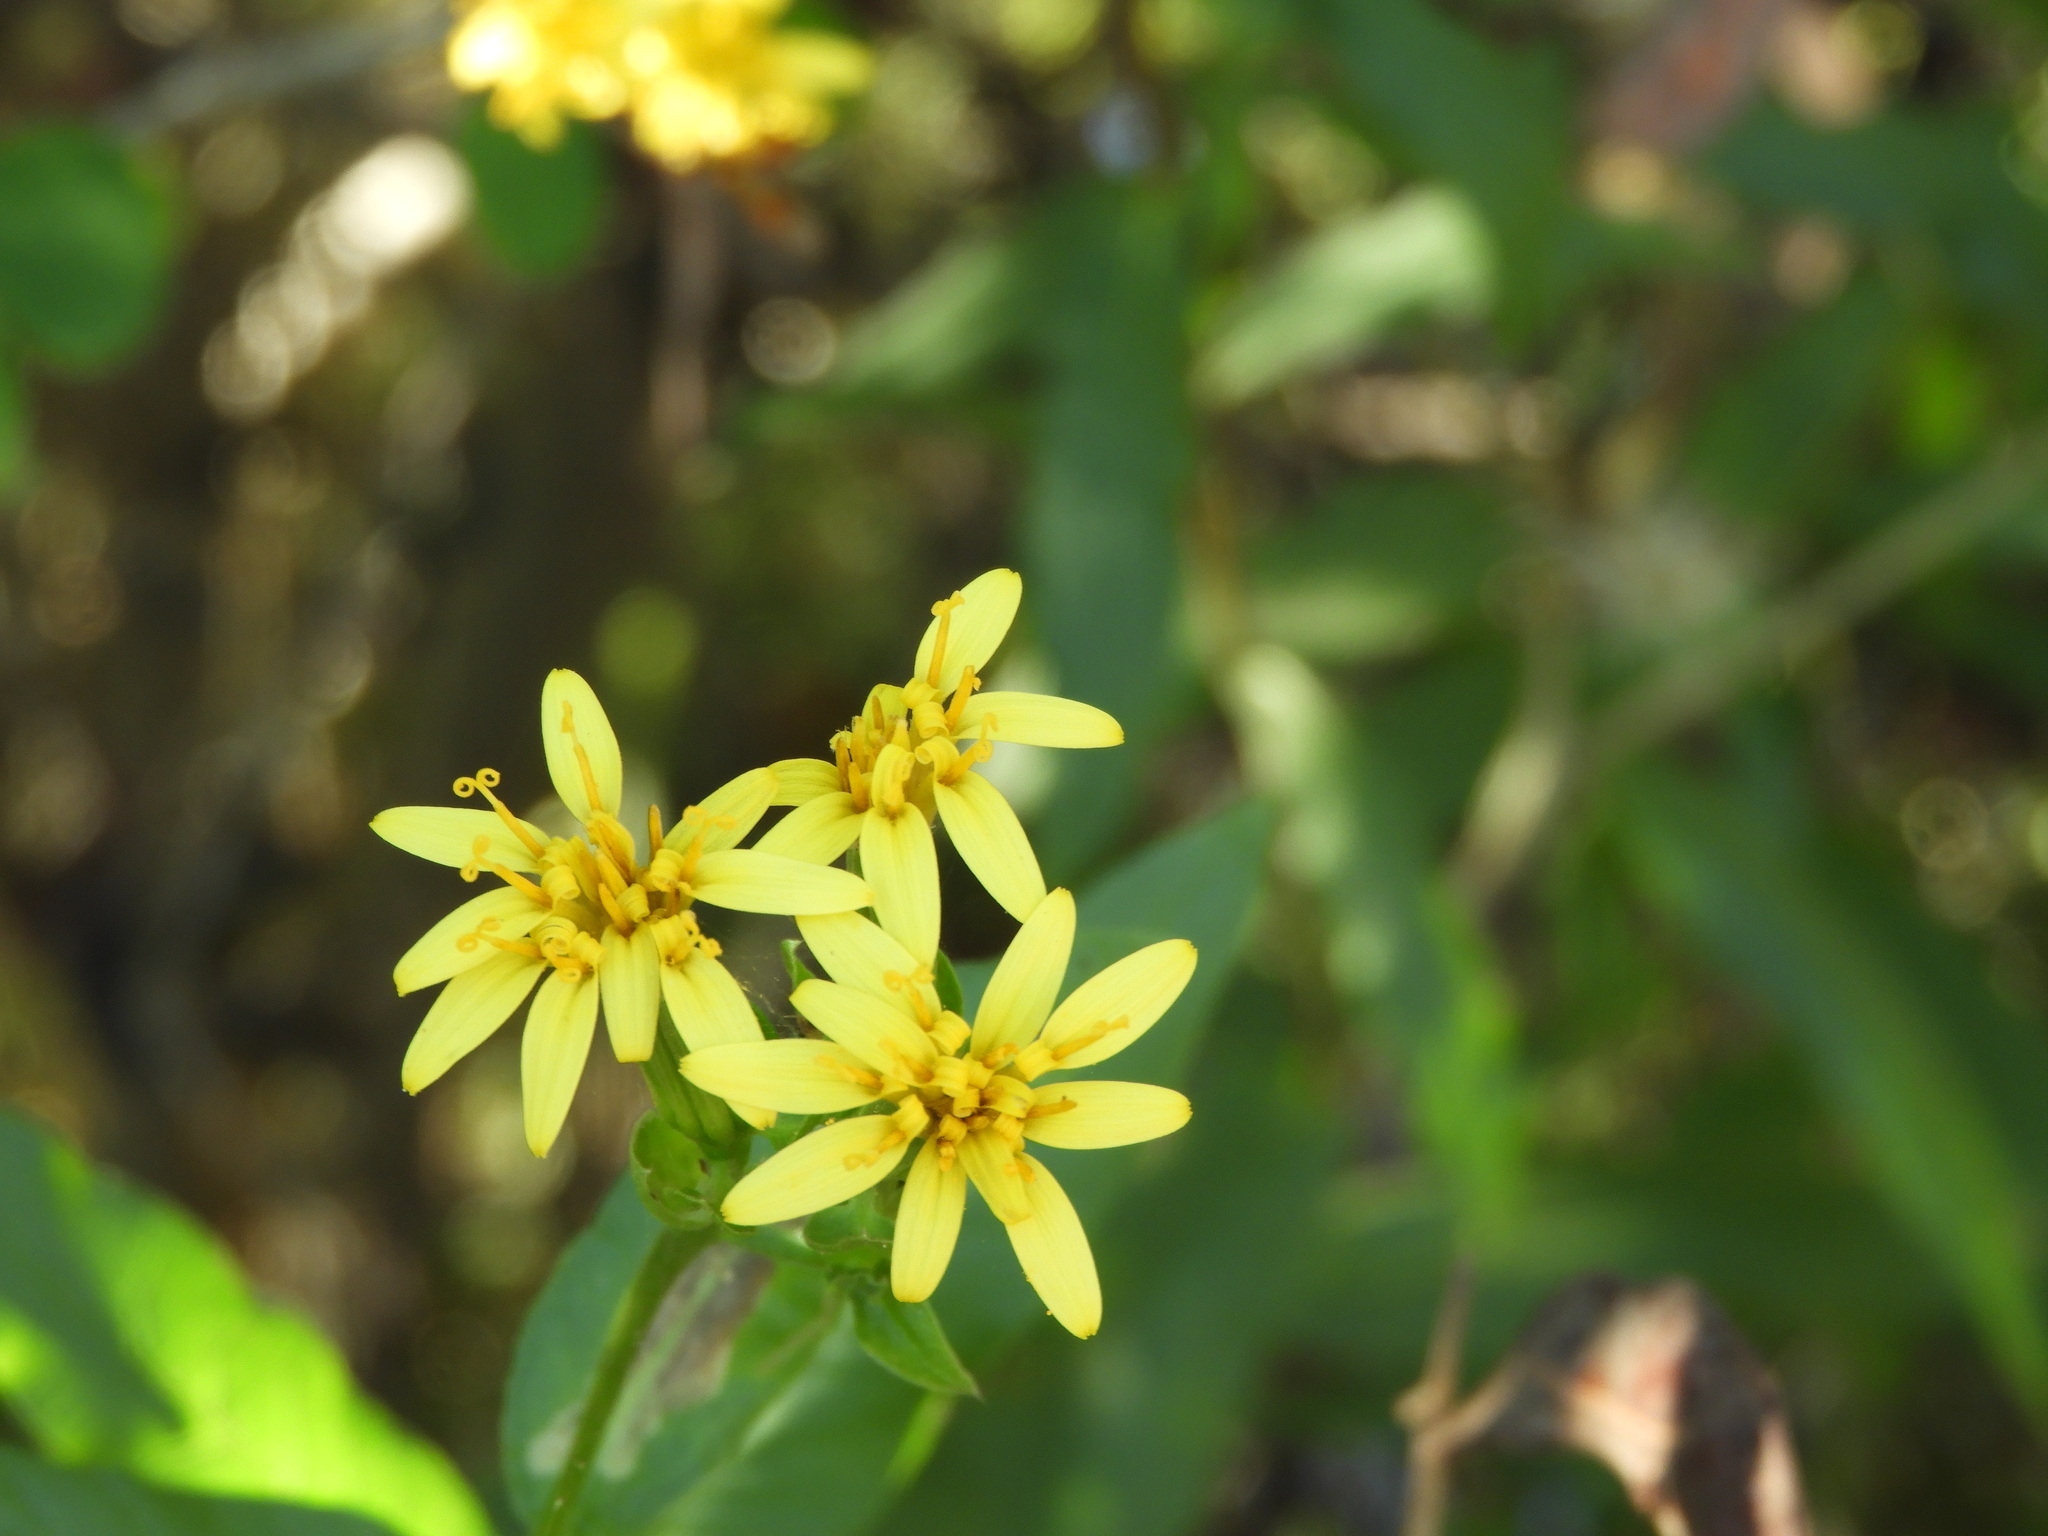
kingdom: Plantae
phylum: Tracheophyta
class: Magnoliopsida
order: Asterales
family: Asteraceae
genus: Trixis
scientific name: Trixis pterocaulis
